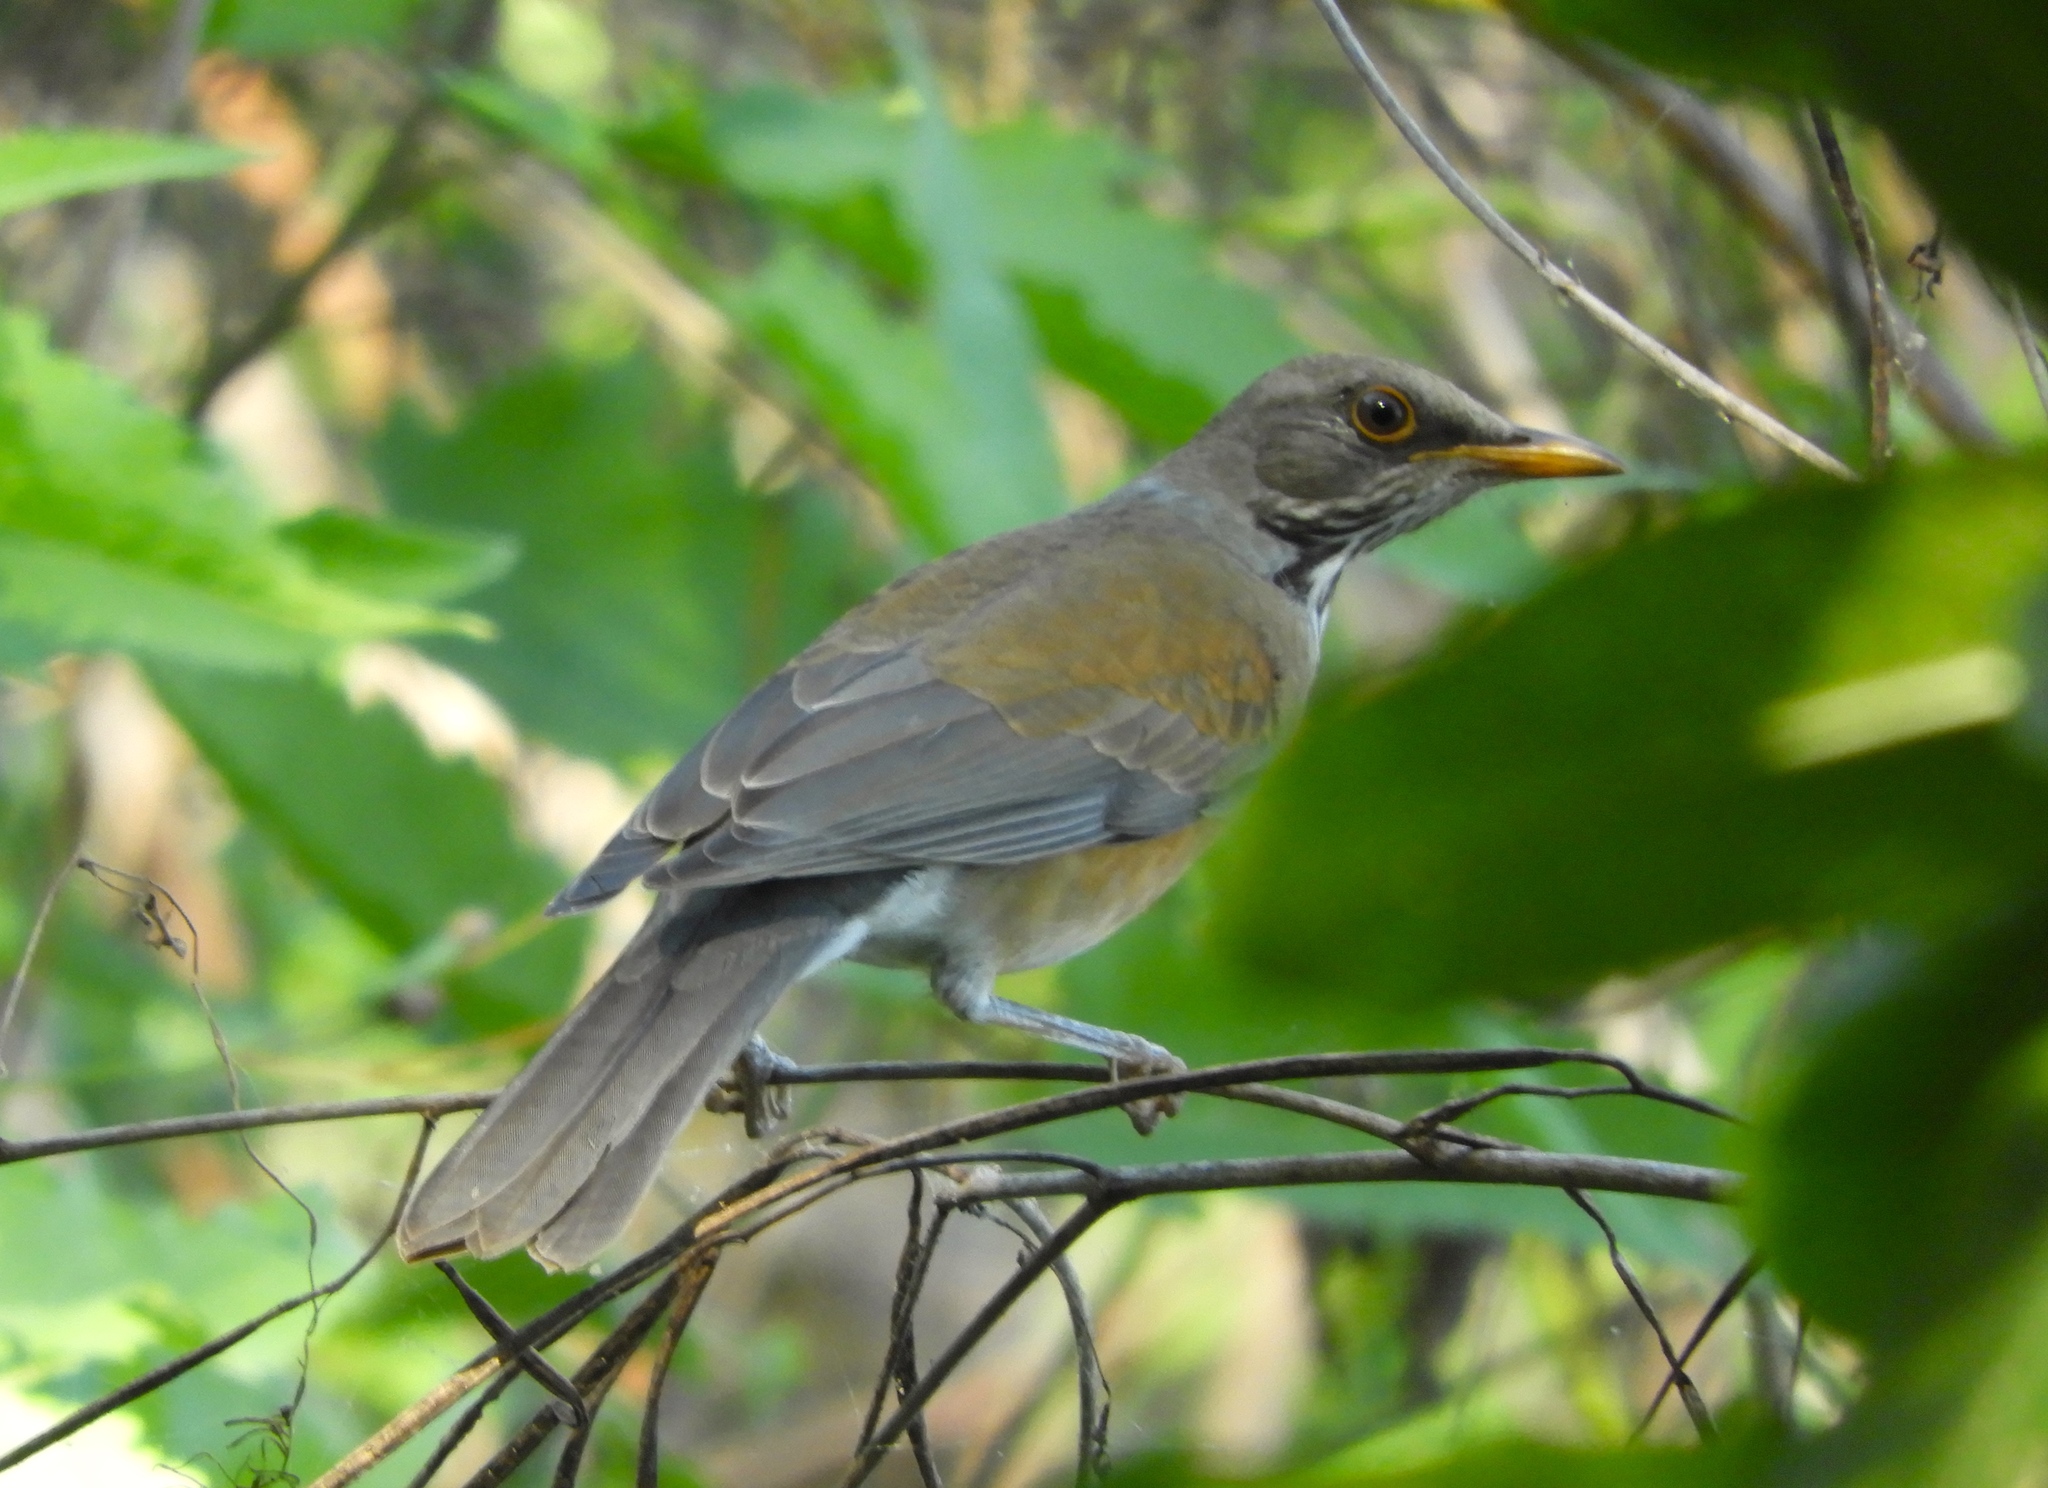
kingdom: Animalia
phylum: Chordata
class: Aves
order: Passeriformes
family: Turdidae
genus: Turdus
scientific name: Turdus rufopalliatus
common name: Rufous-backed robin
